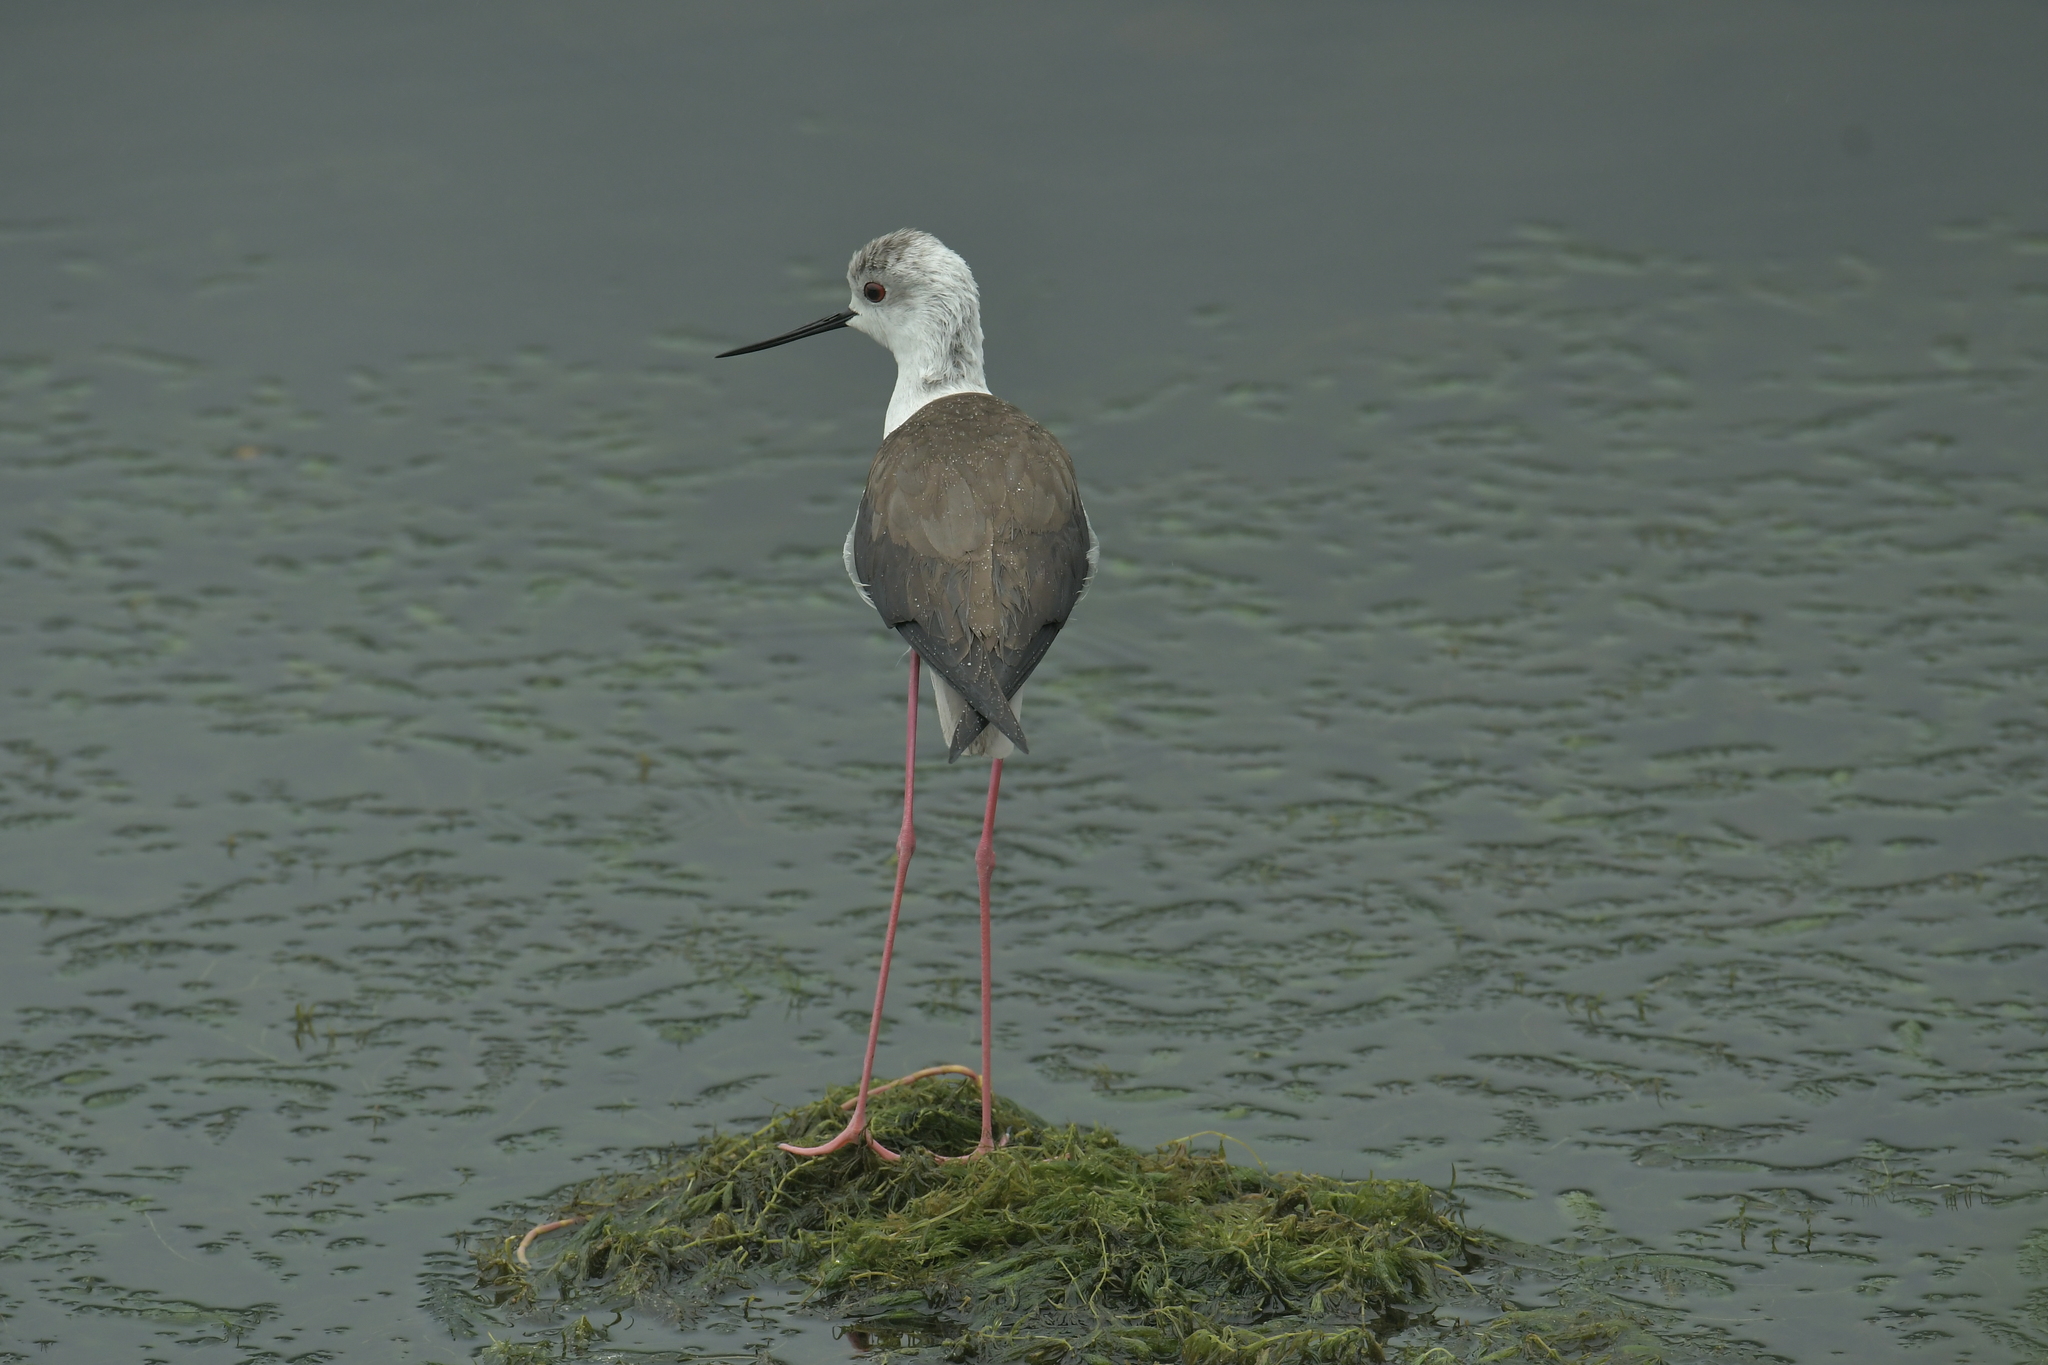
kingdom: Animalia
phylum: Chordata
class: Aves
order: Charadriiformes
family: Recurvirostridae
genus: Himantopus
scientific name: Himantopus himantopus
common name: Black-winged stilt
